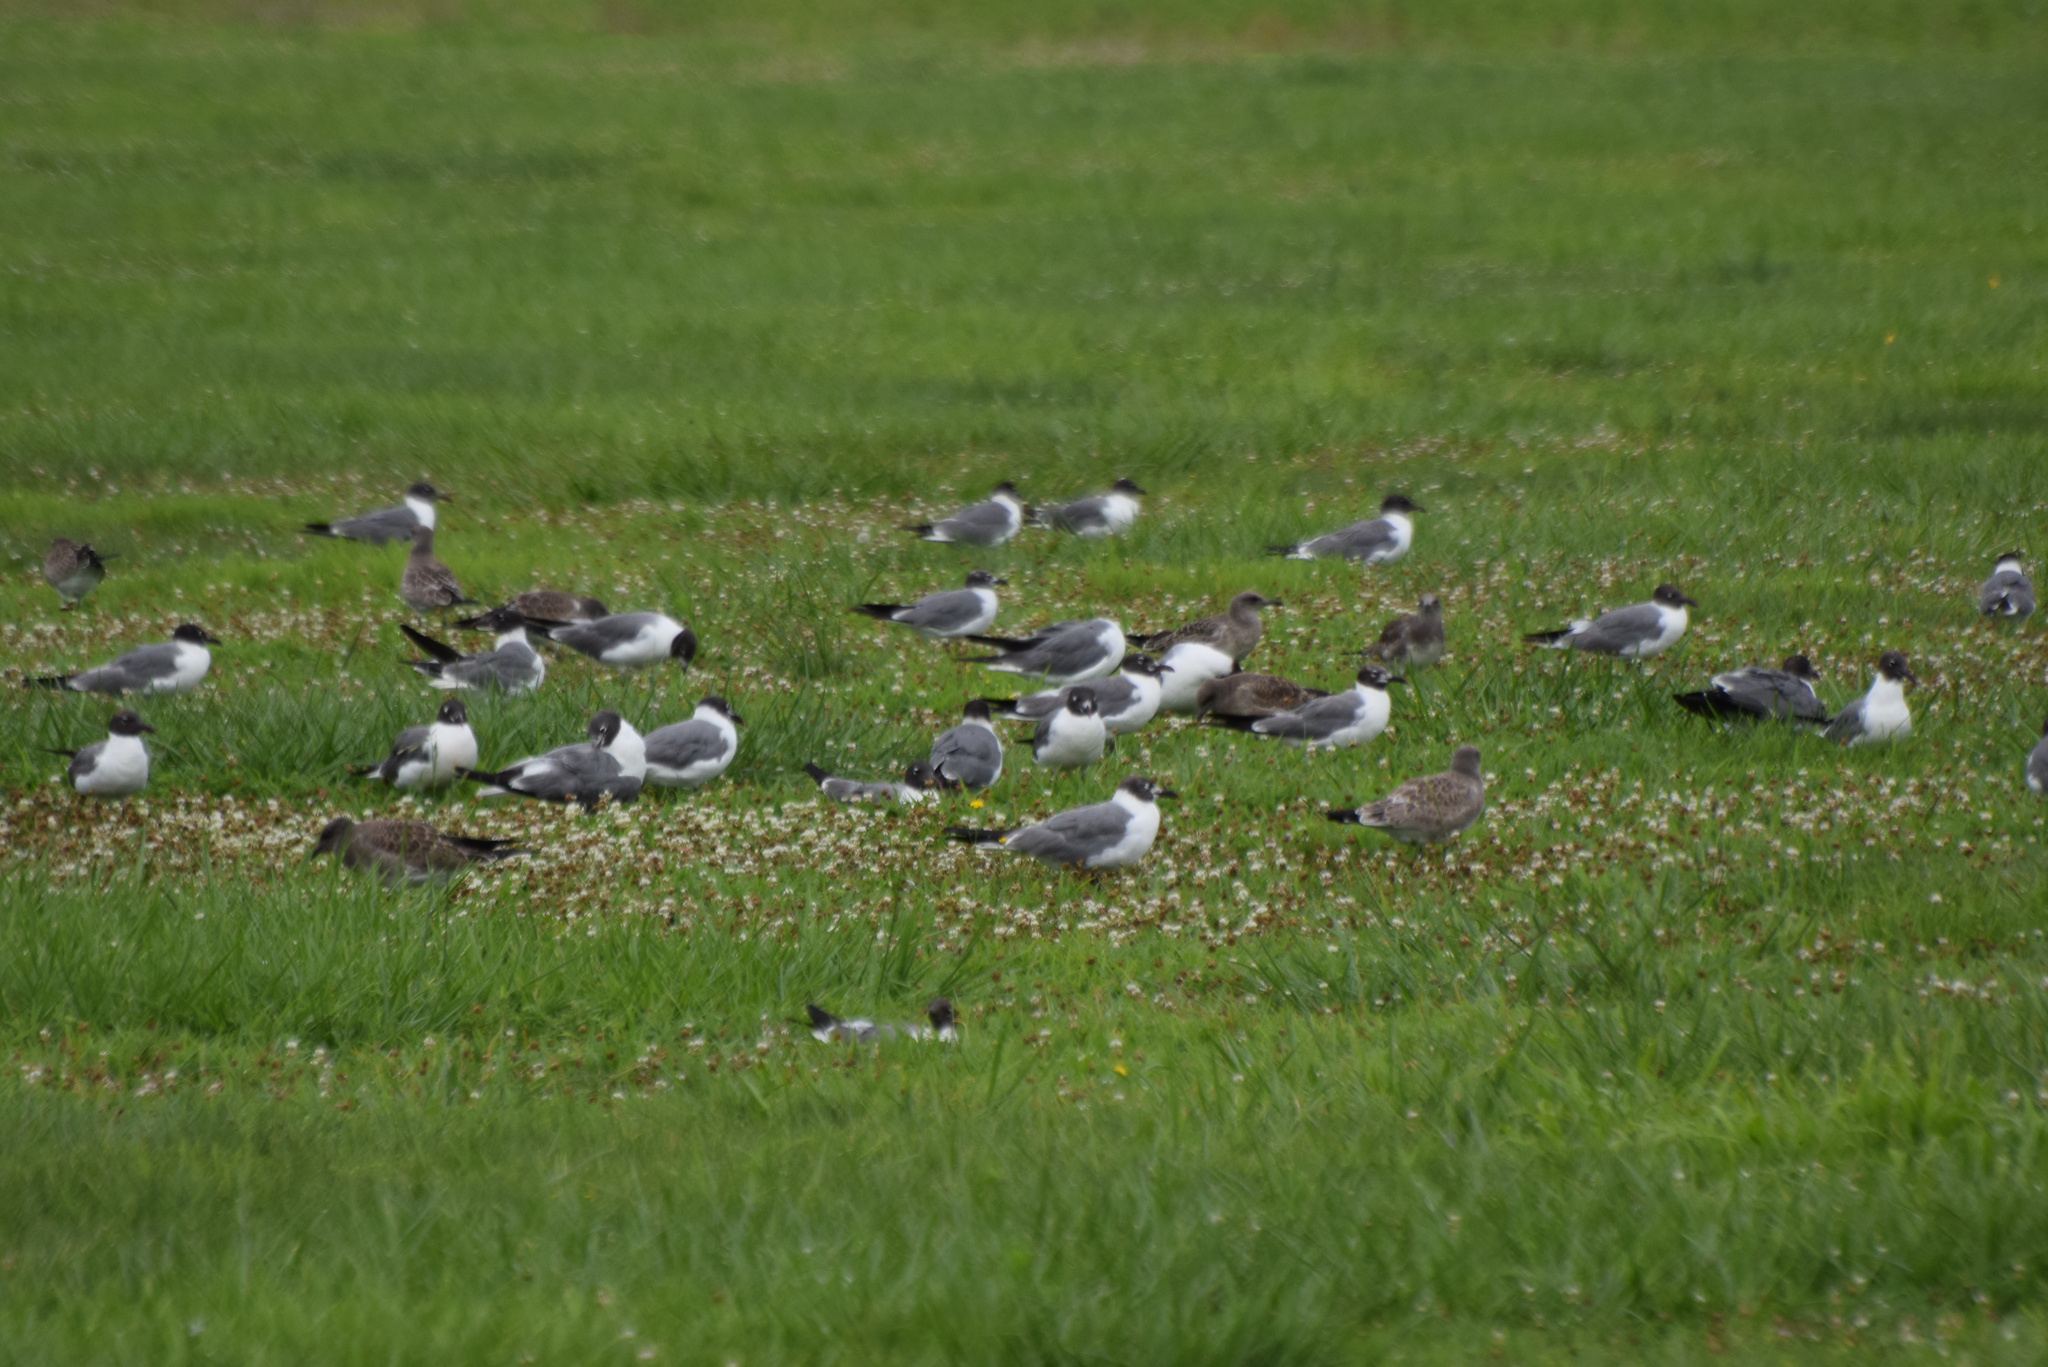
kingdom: Animalia
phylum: Chordata
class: Aves
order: Charadriiformes
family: Laridae
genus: Leucophaeus
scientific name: Leucophaeus atricilla
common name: Laughing gull
